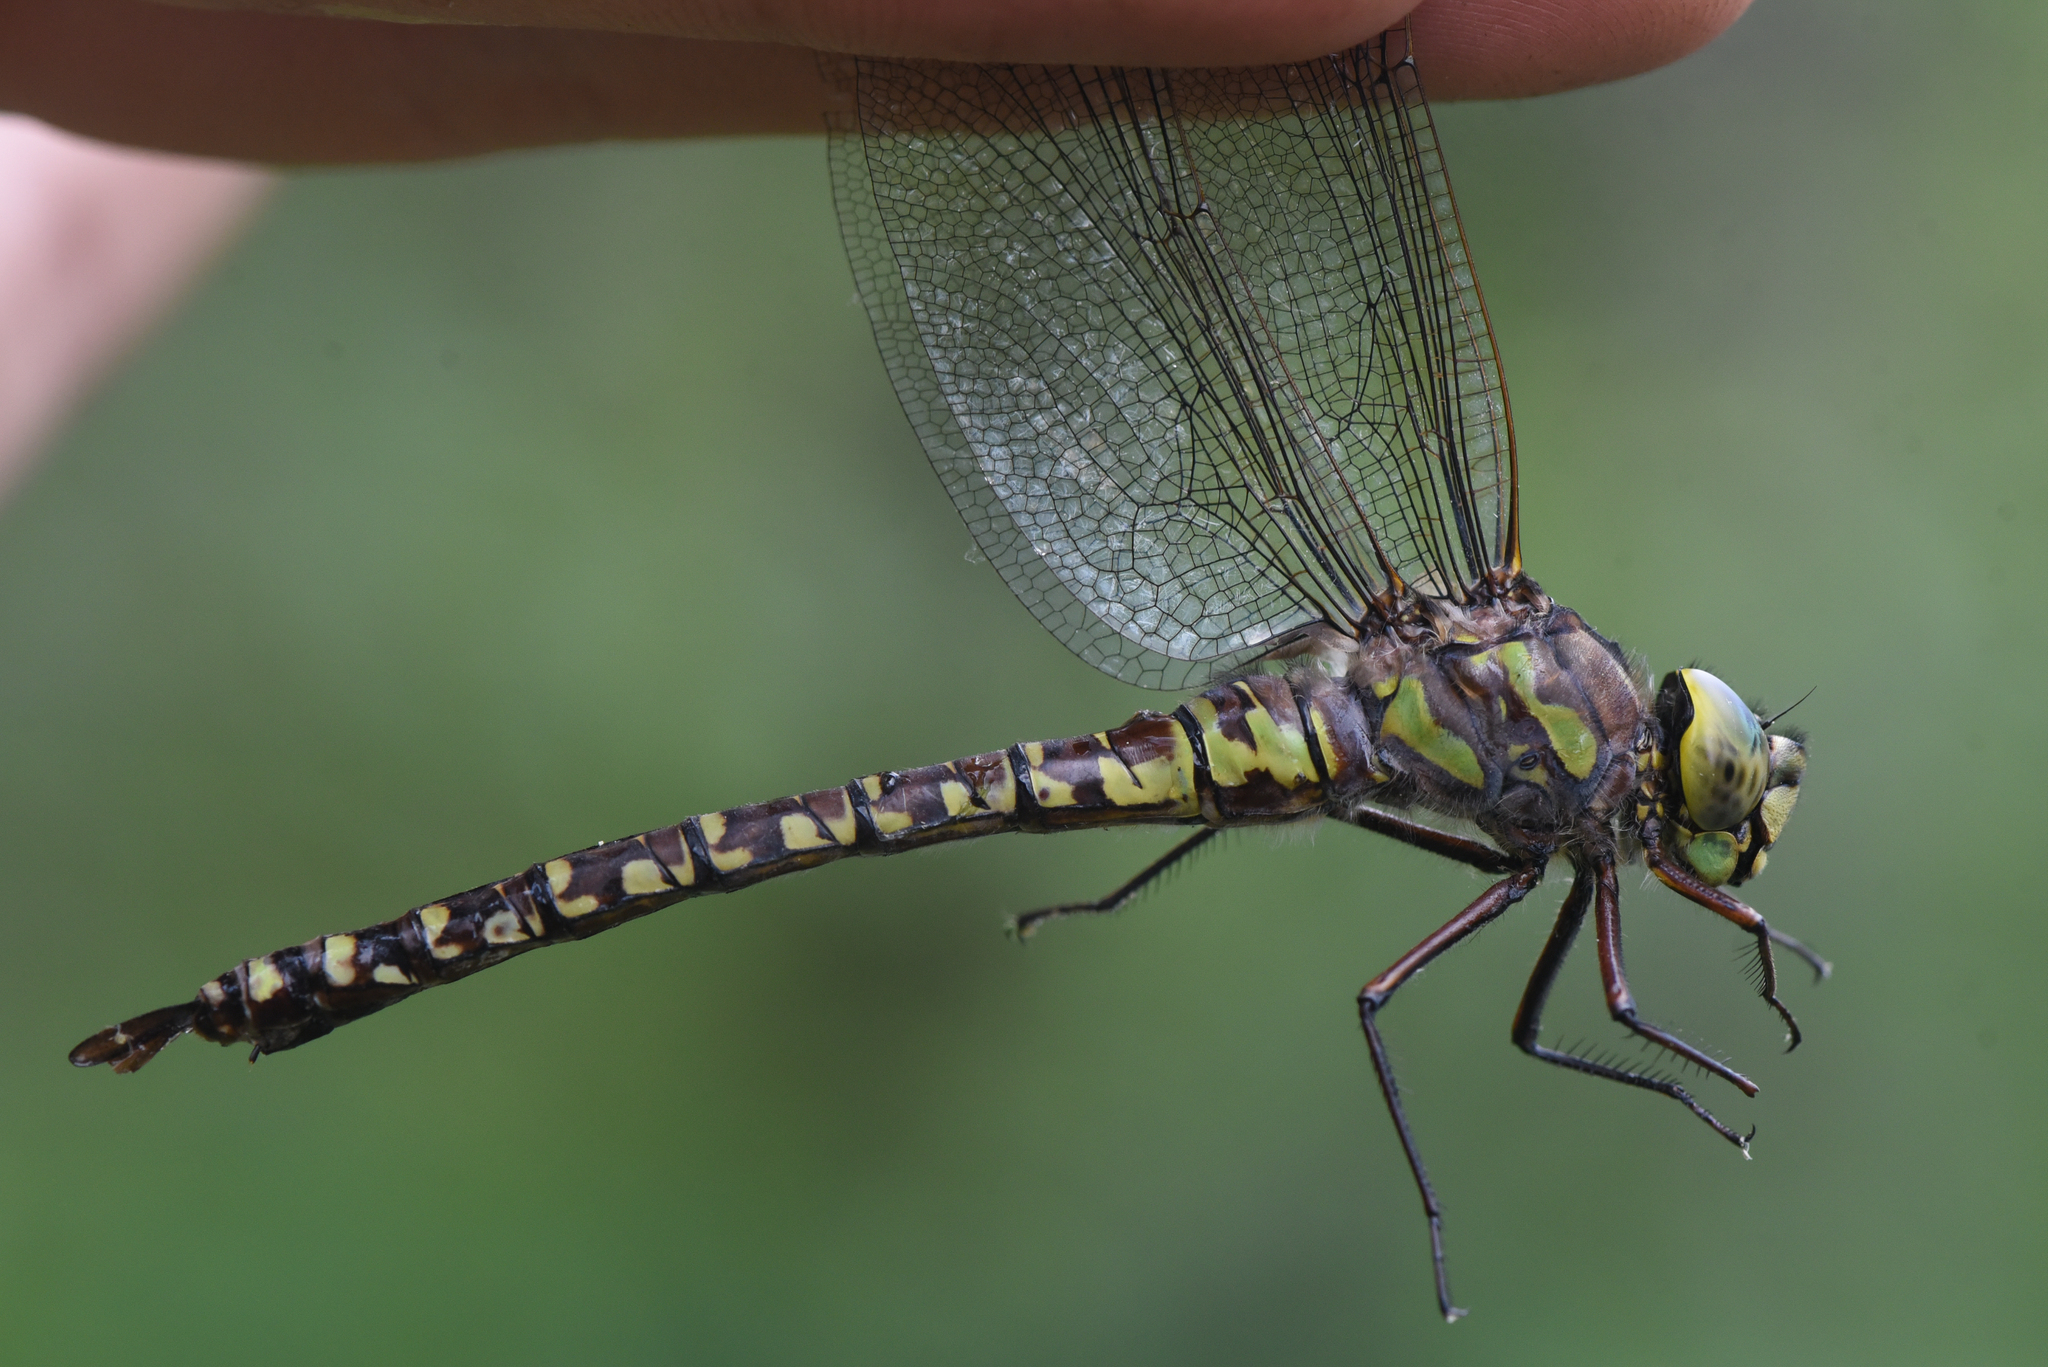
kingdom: Animalia
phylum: Arthropoda
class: Insecta
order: Odonata
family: Aeshnidae
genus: Aeshna
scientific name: Aeshna eremita
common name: Lake darner
